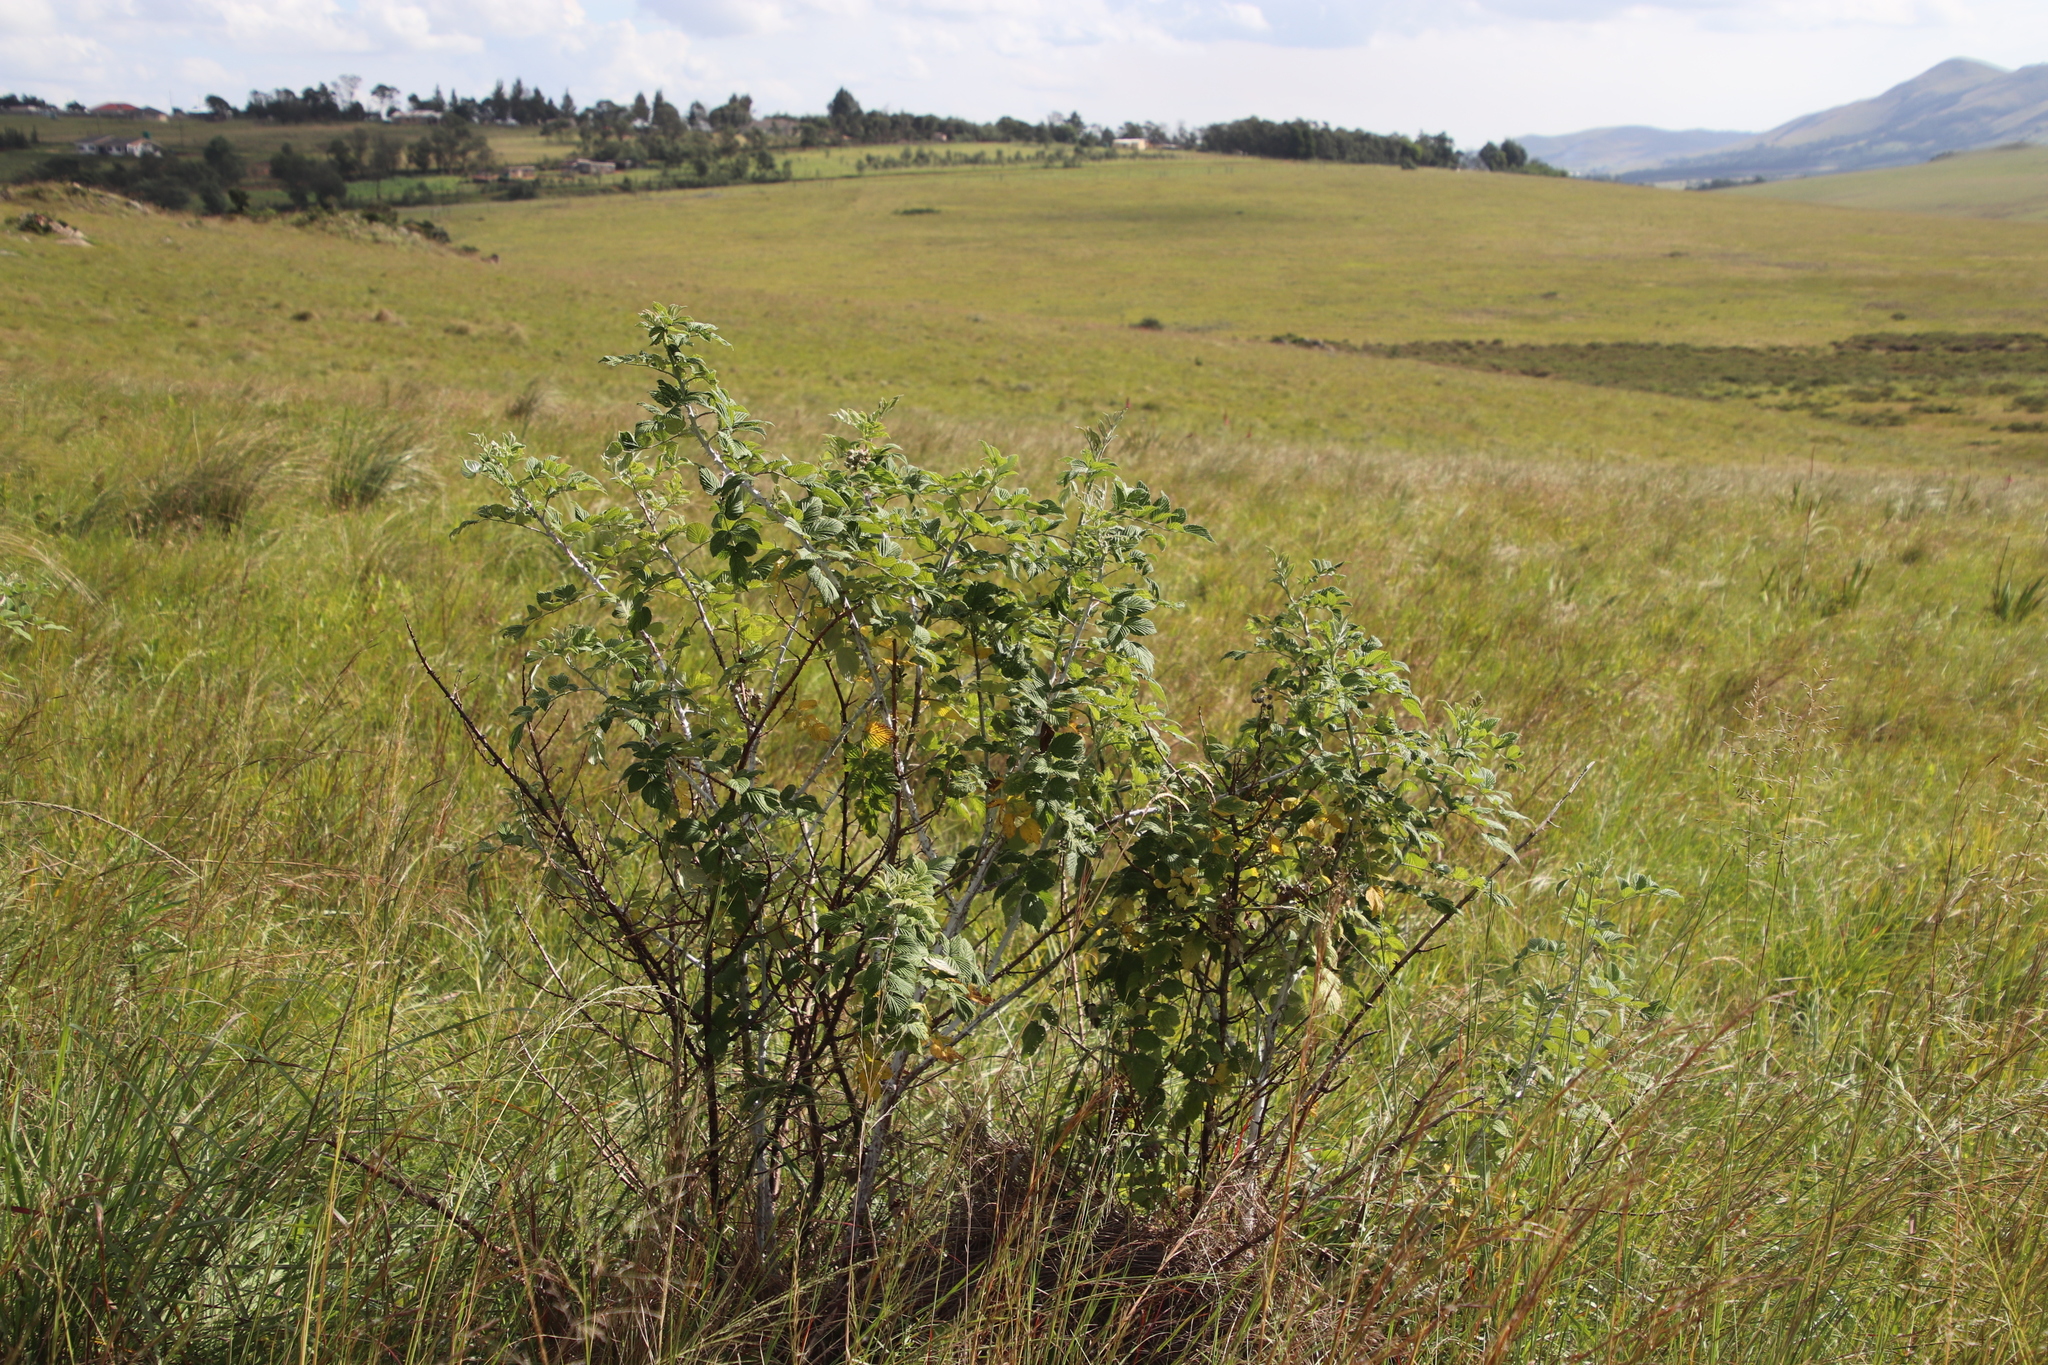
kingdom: Plantae
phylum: Tracheophyta
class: Magnoliopsida
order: Rosales
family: Rosaceae
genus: Rubus
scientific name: Rubus niveus
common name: Snowpeaks raspberry
